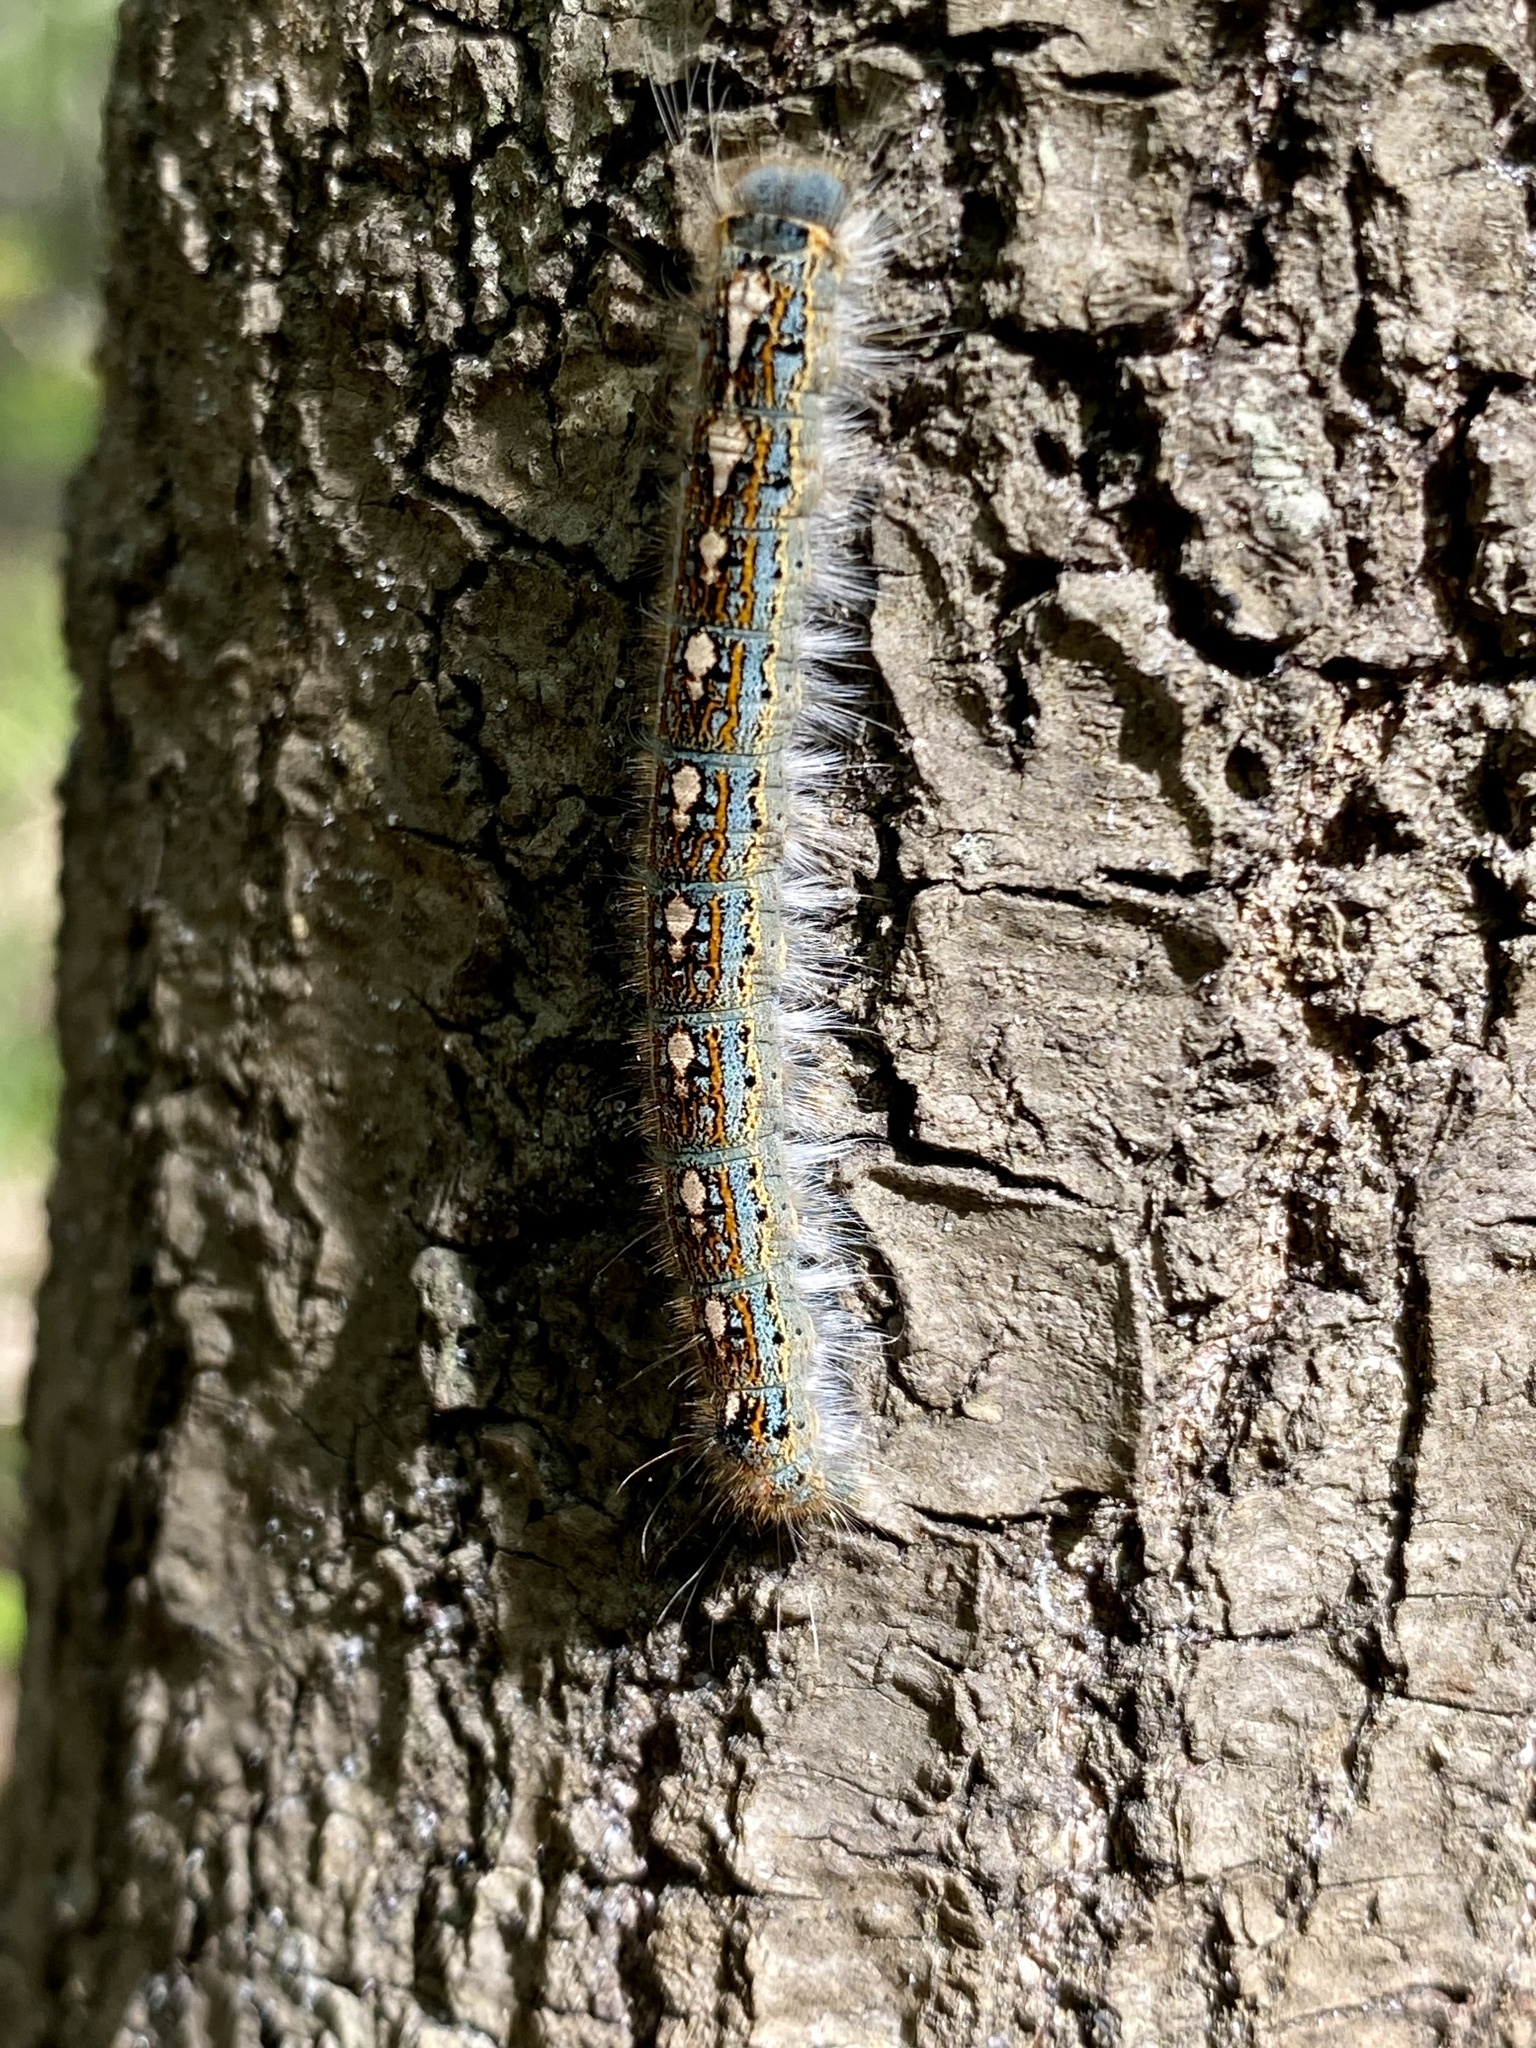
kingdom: Animalia
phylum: Arthropoda
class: Insecta
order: Lepidoptera
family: Lasiocampidae
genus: Malacosoma
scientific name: Malacosoma disstria
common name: Forest tent caterpillar
